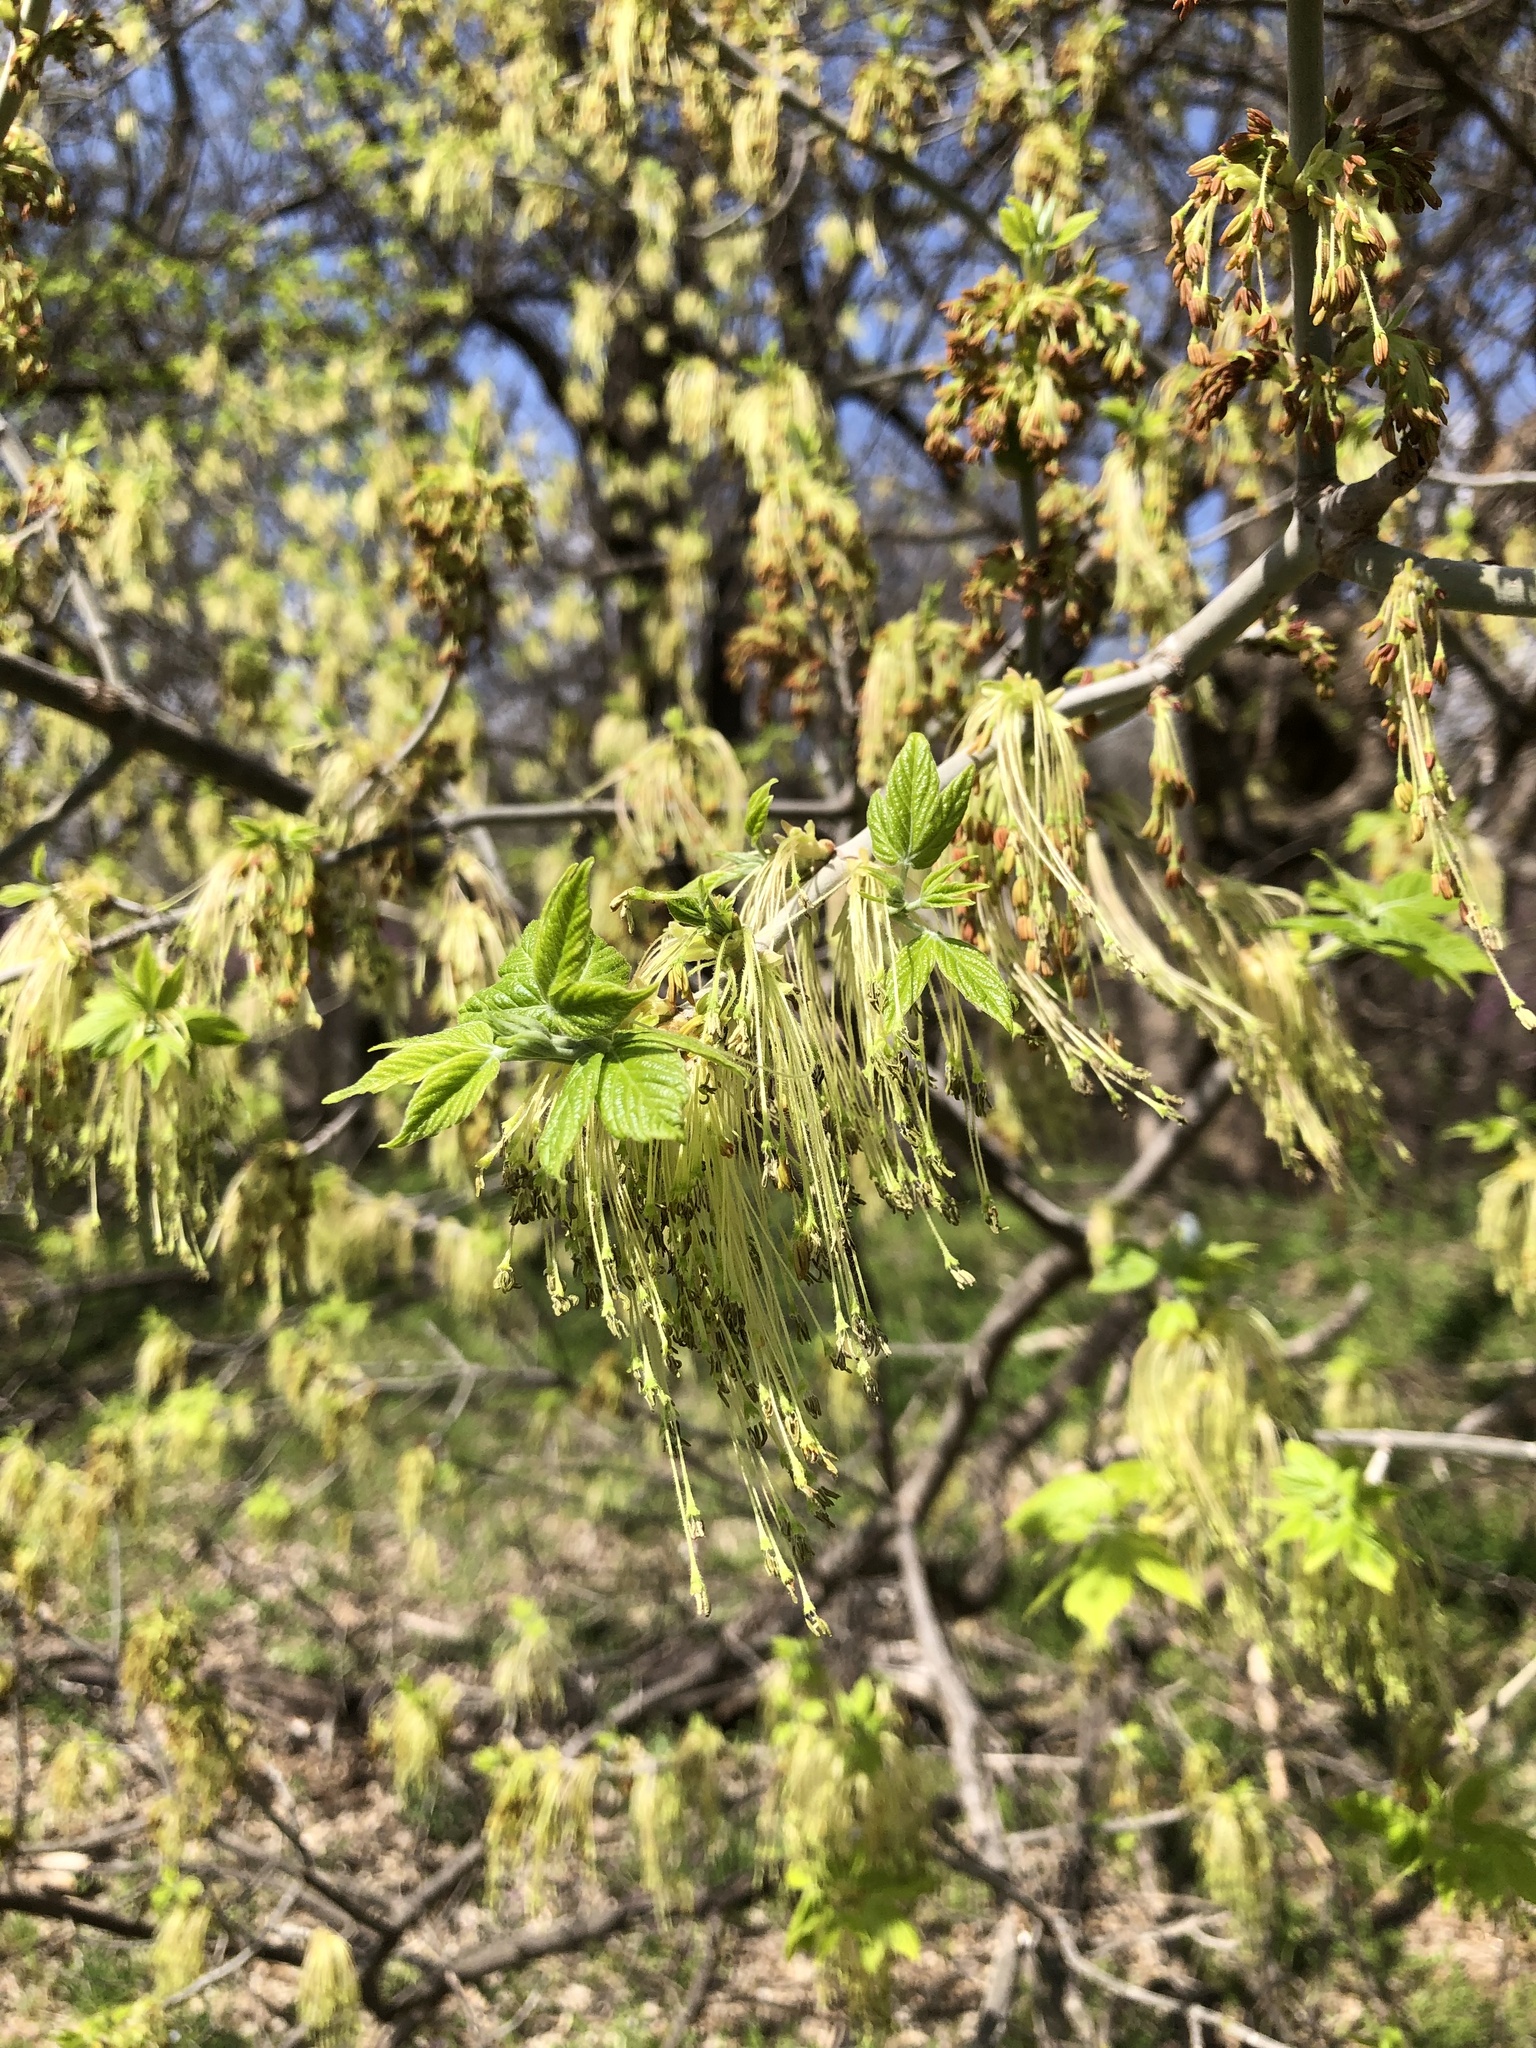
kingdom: Plantae
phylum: Tracheophyta
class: Magnoliopsida
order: Sapindales
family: Sapindaceae
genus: Acer
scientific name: Acer negundo
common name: Ashleaf maple
